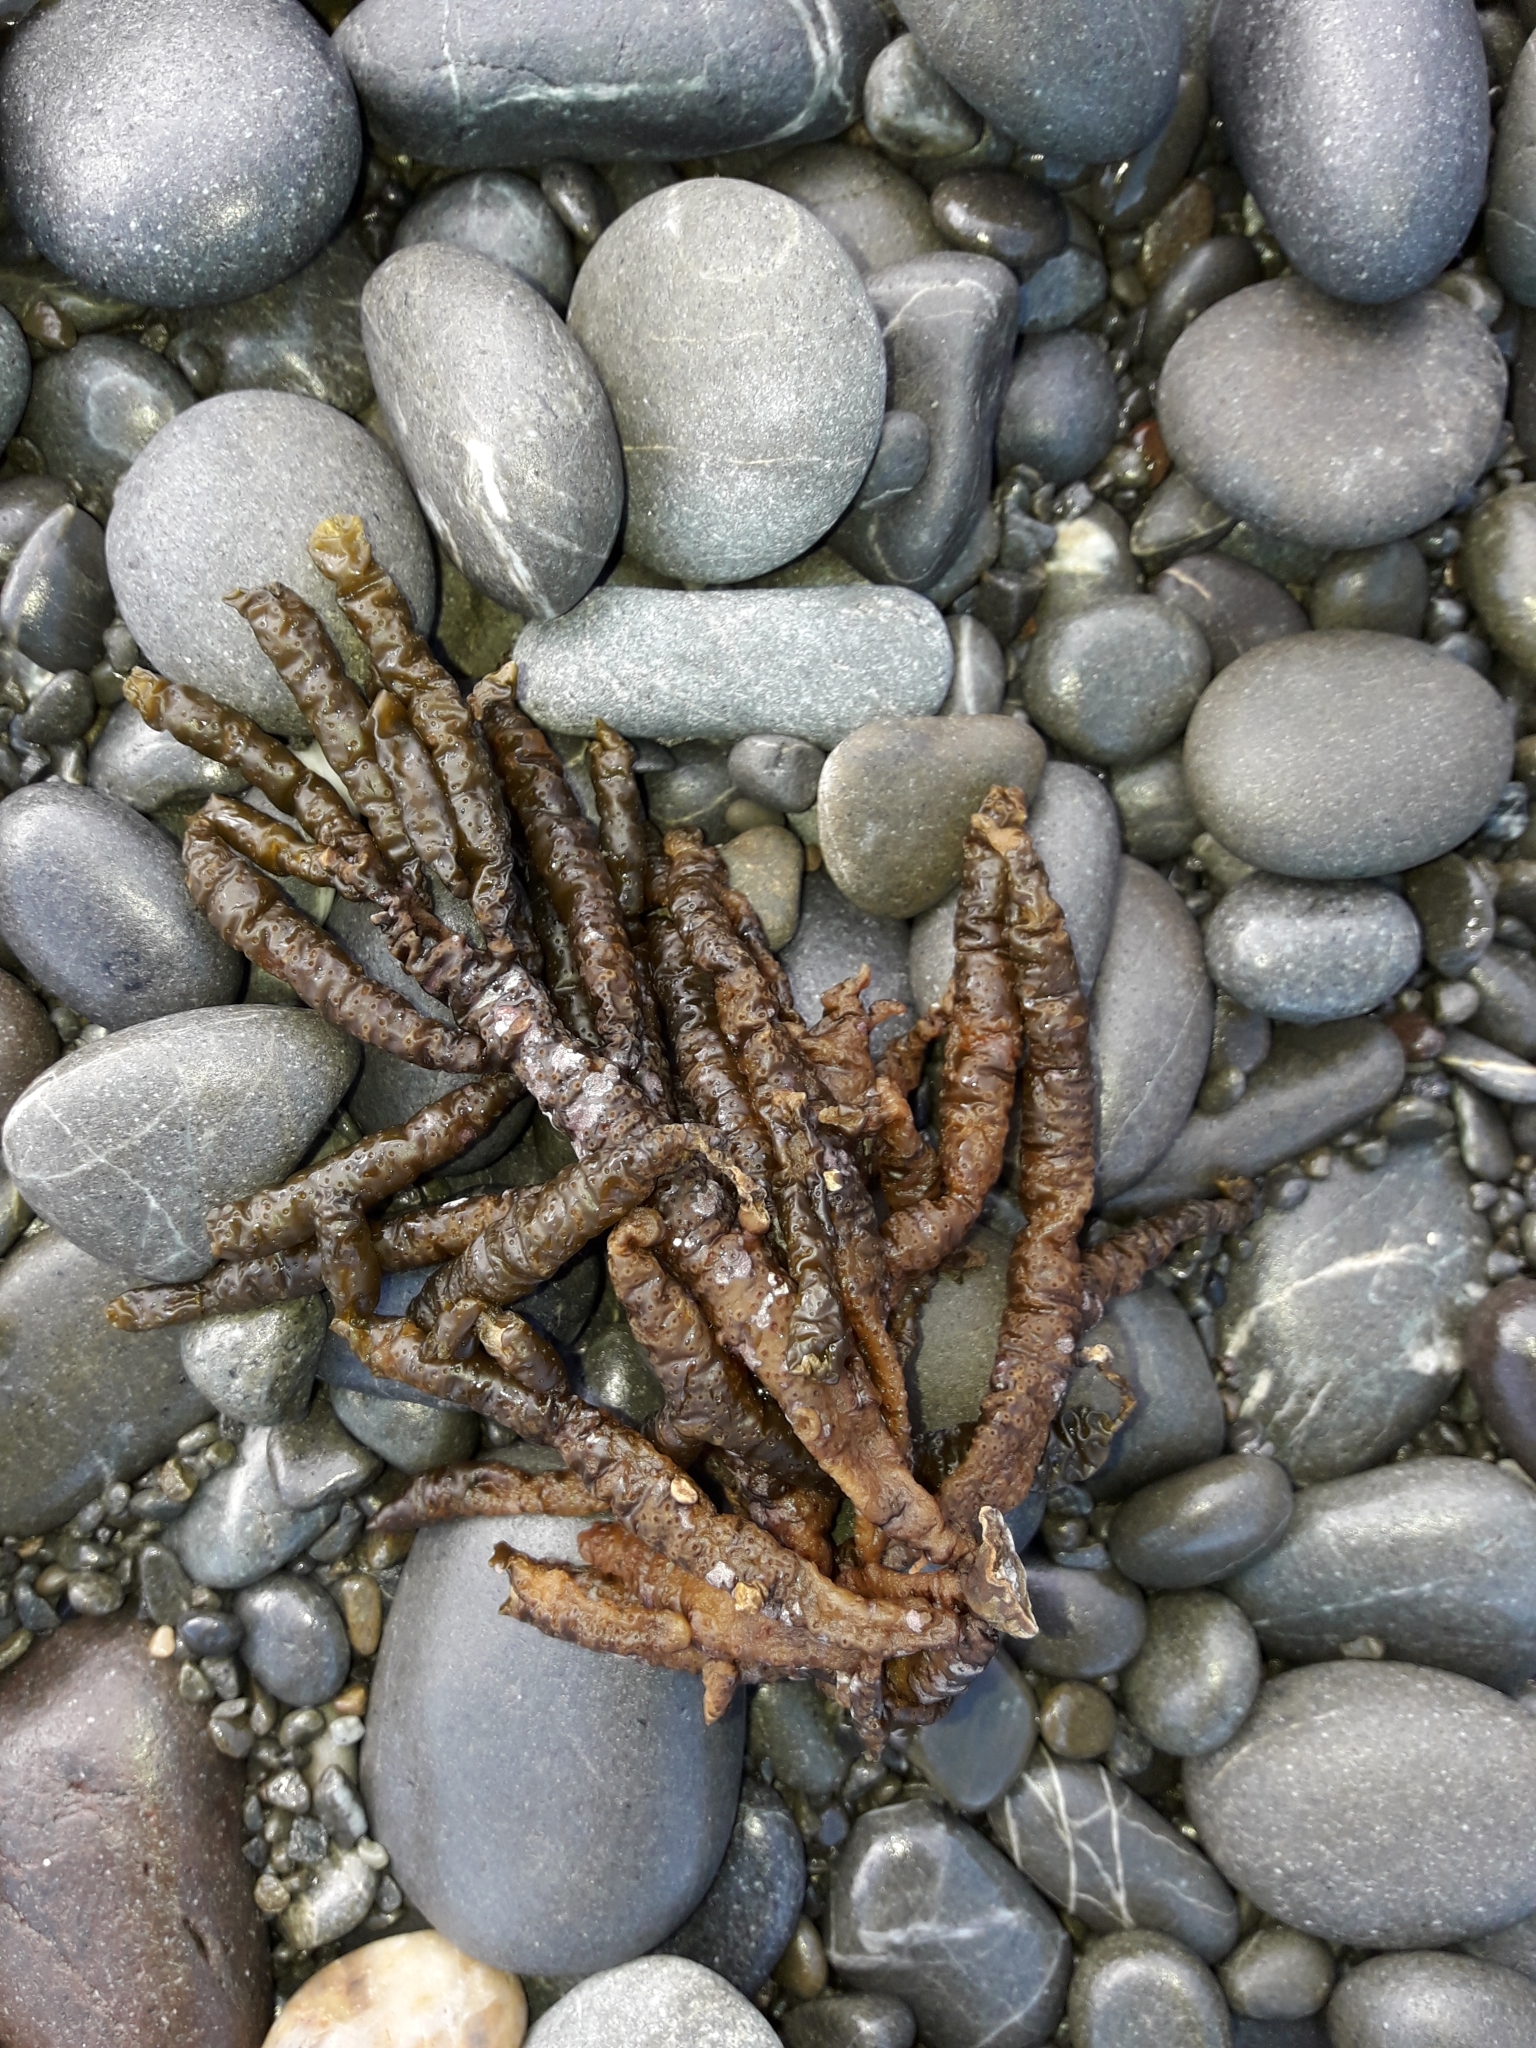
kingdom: Chromista
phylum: Ochrophyta
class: Phaeophyceae
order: Scytothamnales
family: Splachnidiaceae
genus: Splachnidium
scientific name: Splachnidium rugosum
